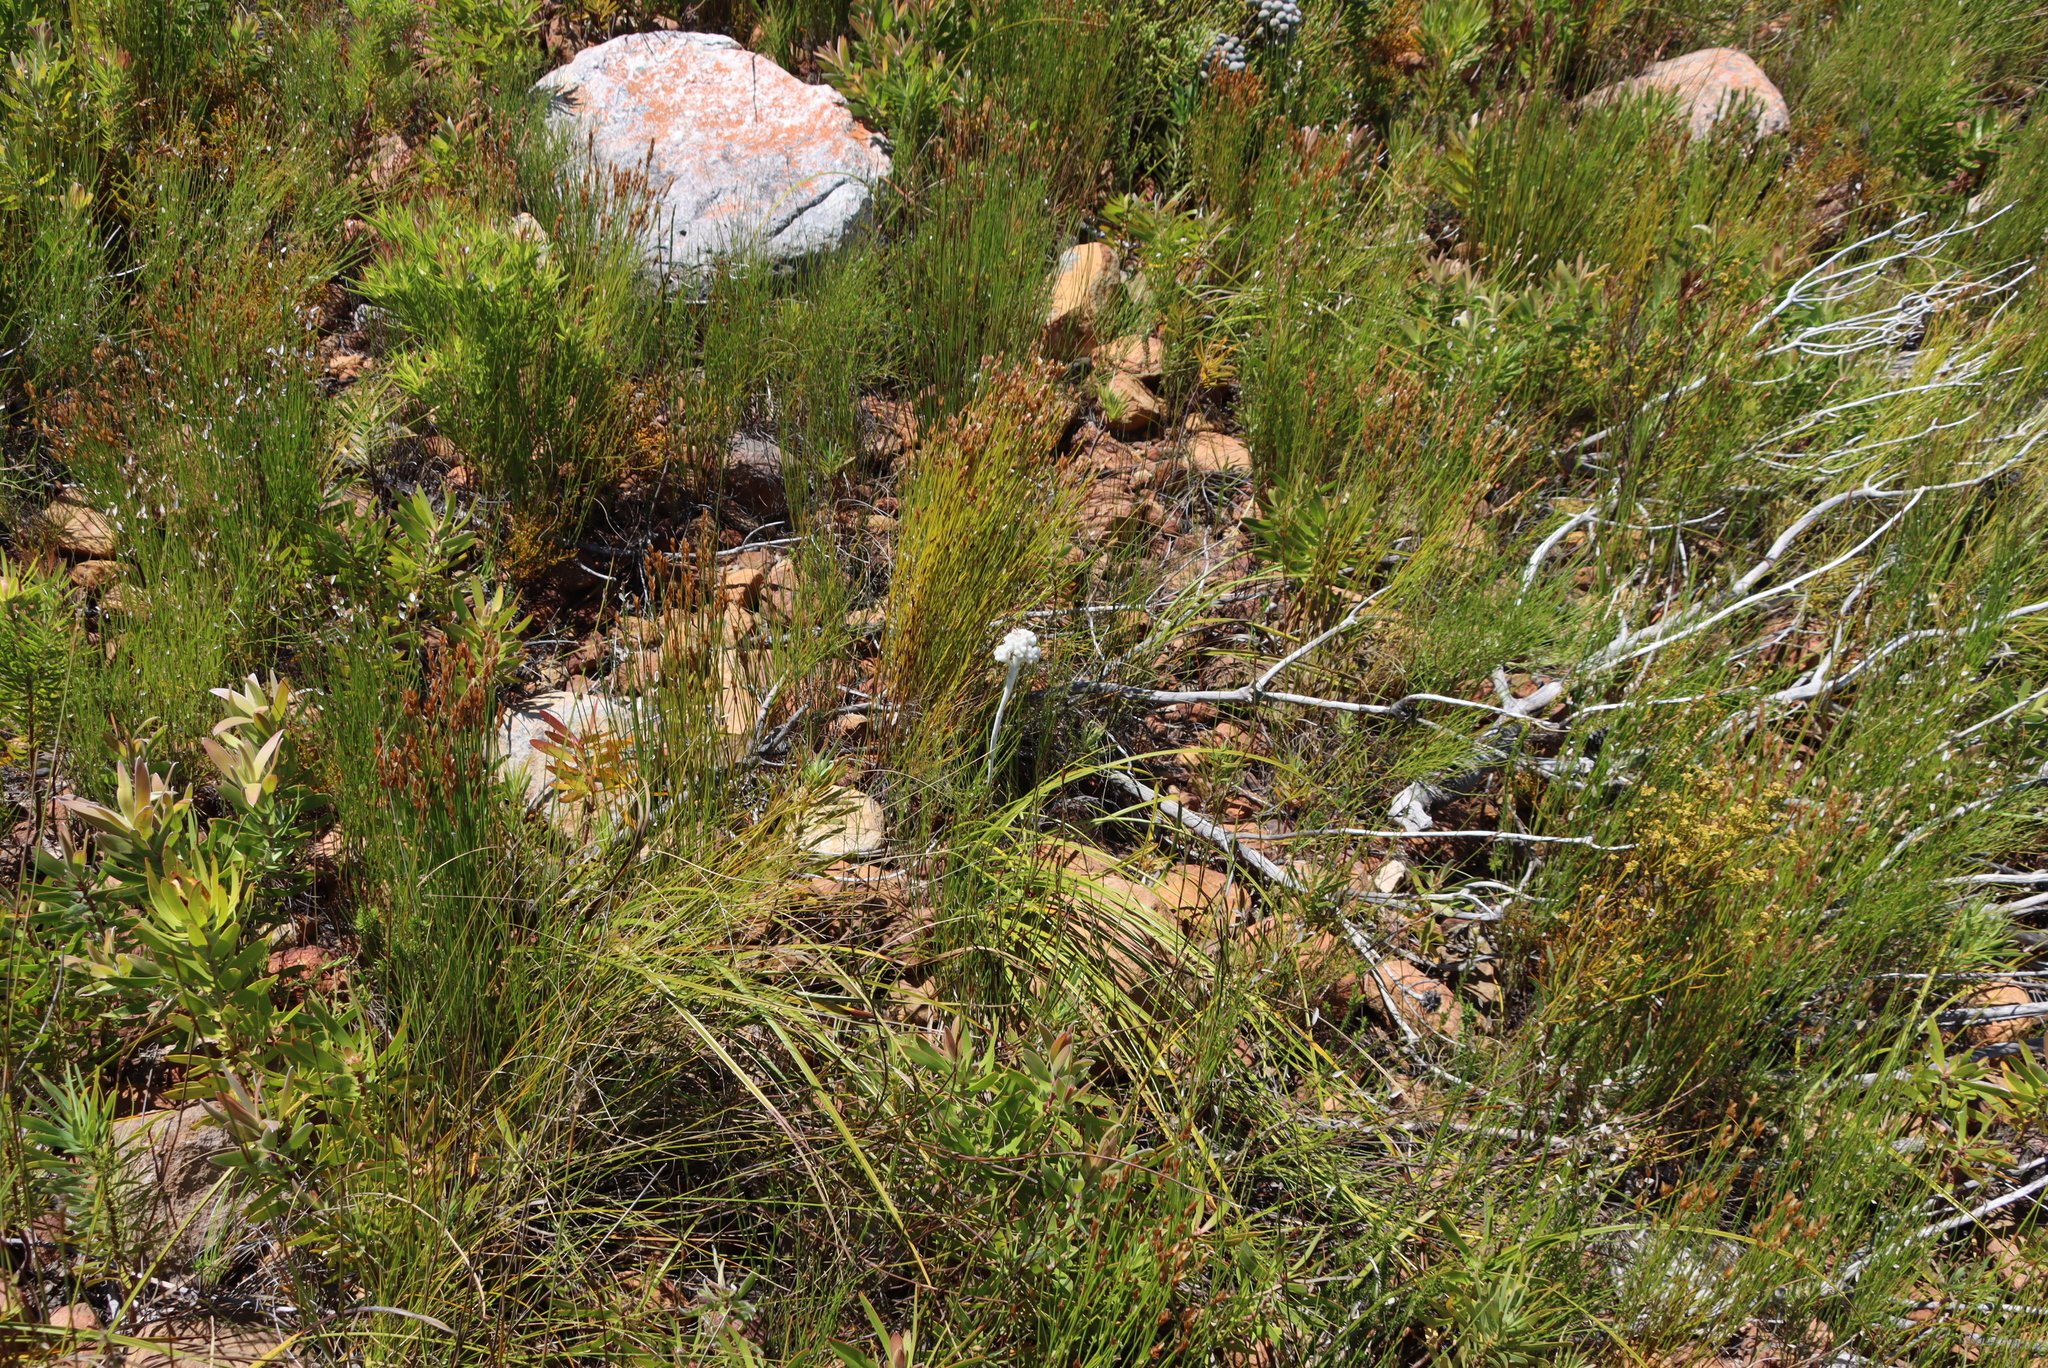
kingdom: Plantae
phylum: Tracheophyta
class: Liliopsida
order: Asparagales
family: Lanariaceae
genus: Lanaria
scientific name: Lanaria lanata
